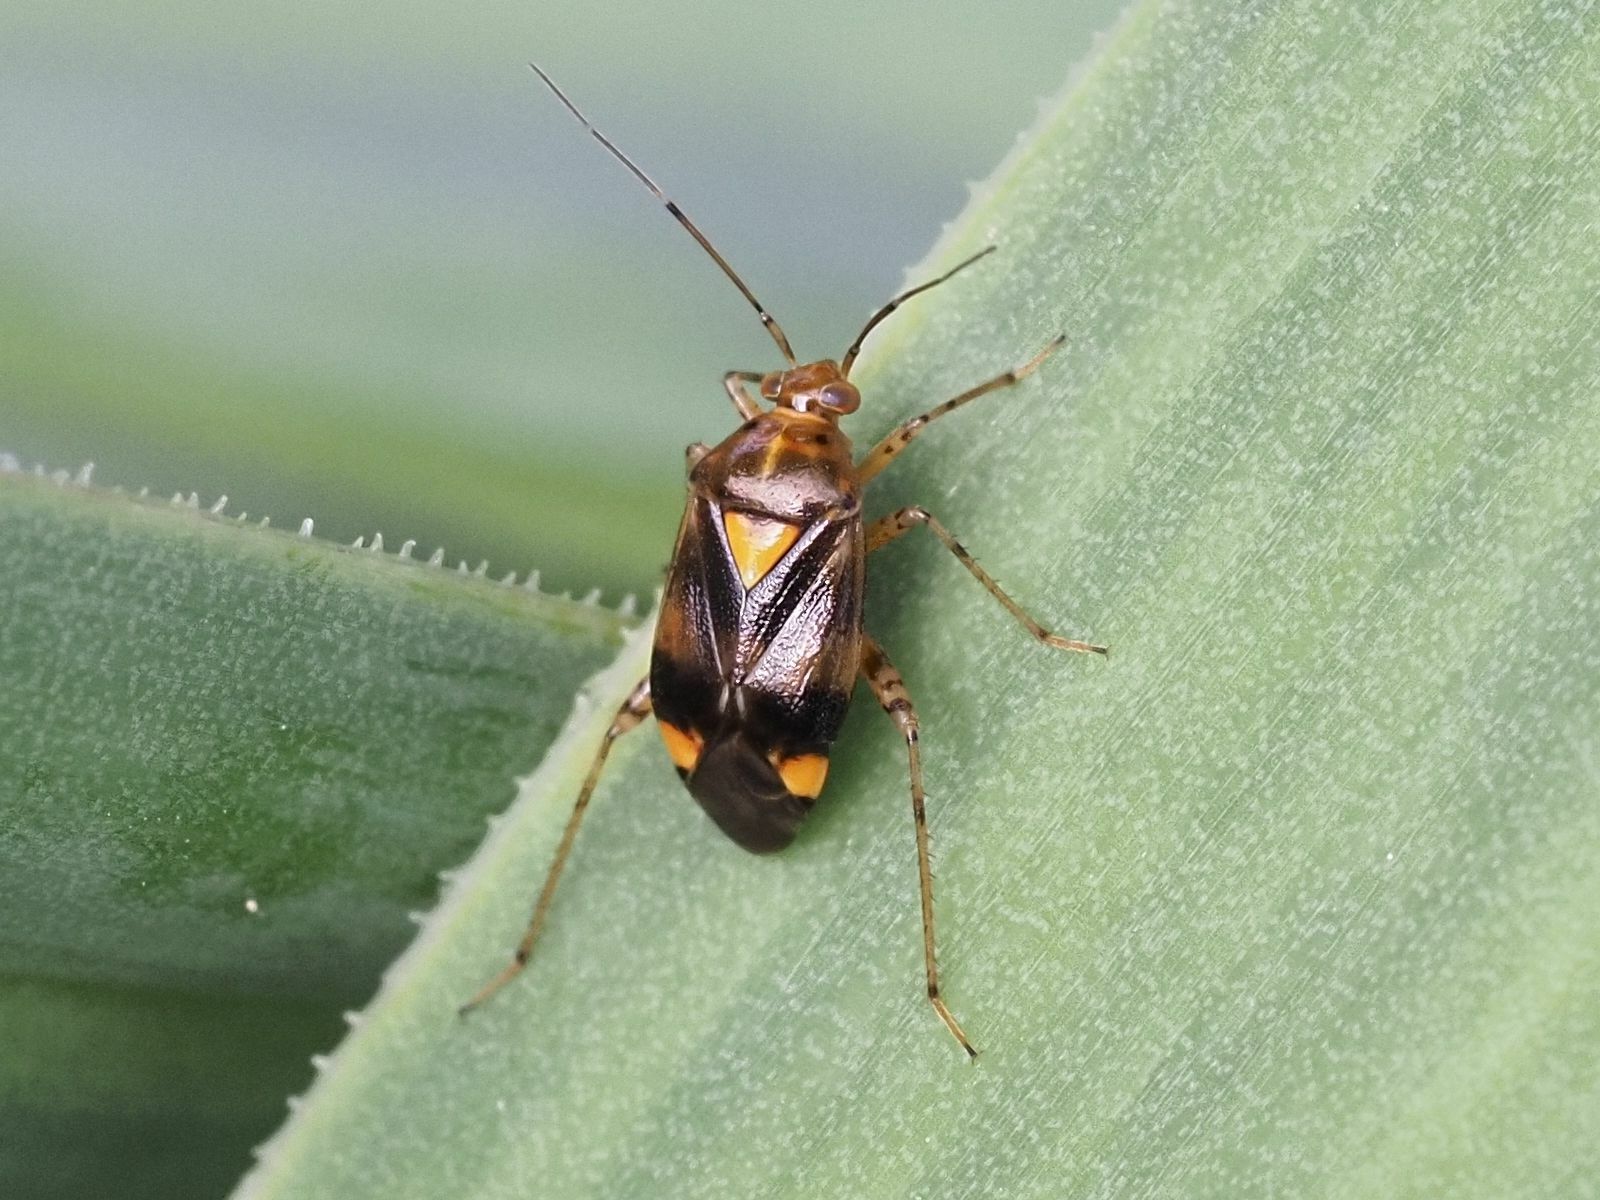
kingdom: Animalia
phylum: Arthropoda
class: Insecta
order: Hemiptera
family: Miridae
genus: Liocoris
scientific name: Liocoris tripustulatus
